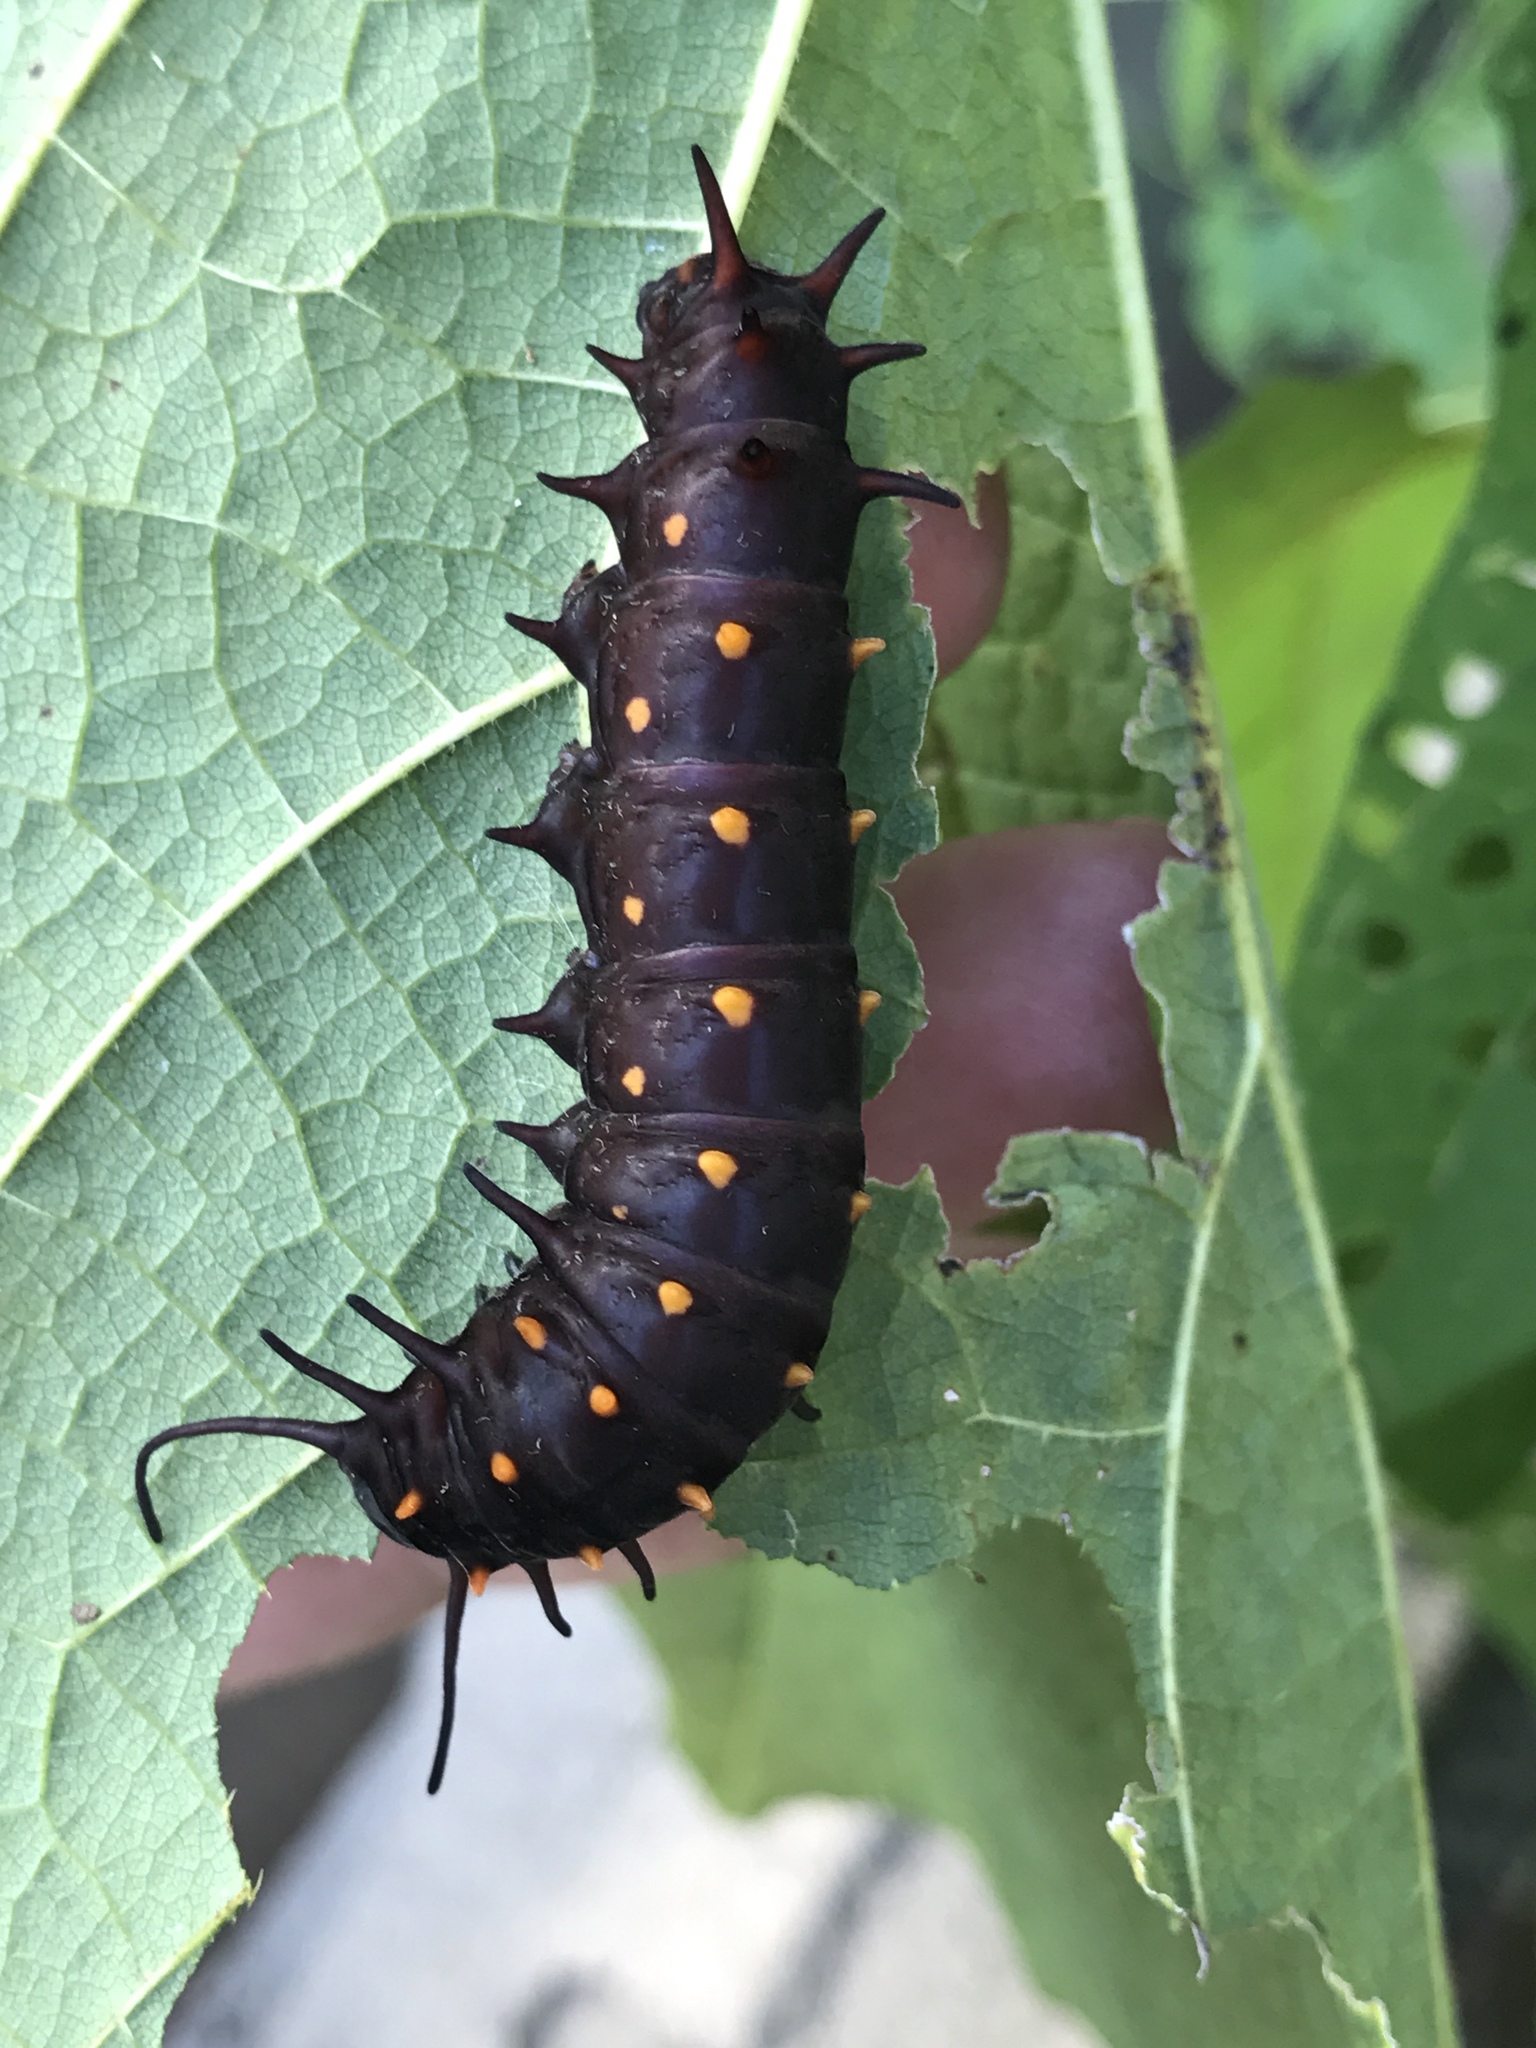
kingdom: Animalia
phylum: Arthropoda
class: Insecta
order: Lepidoptera
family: Papilionidae
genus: Battus
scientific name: Battus philenor
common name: Pipevine swallowtail
